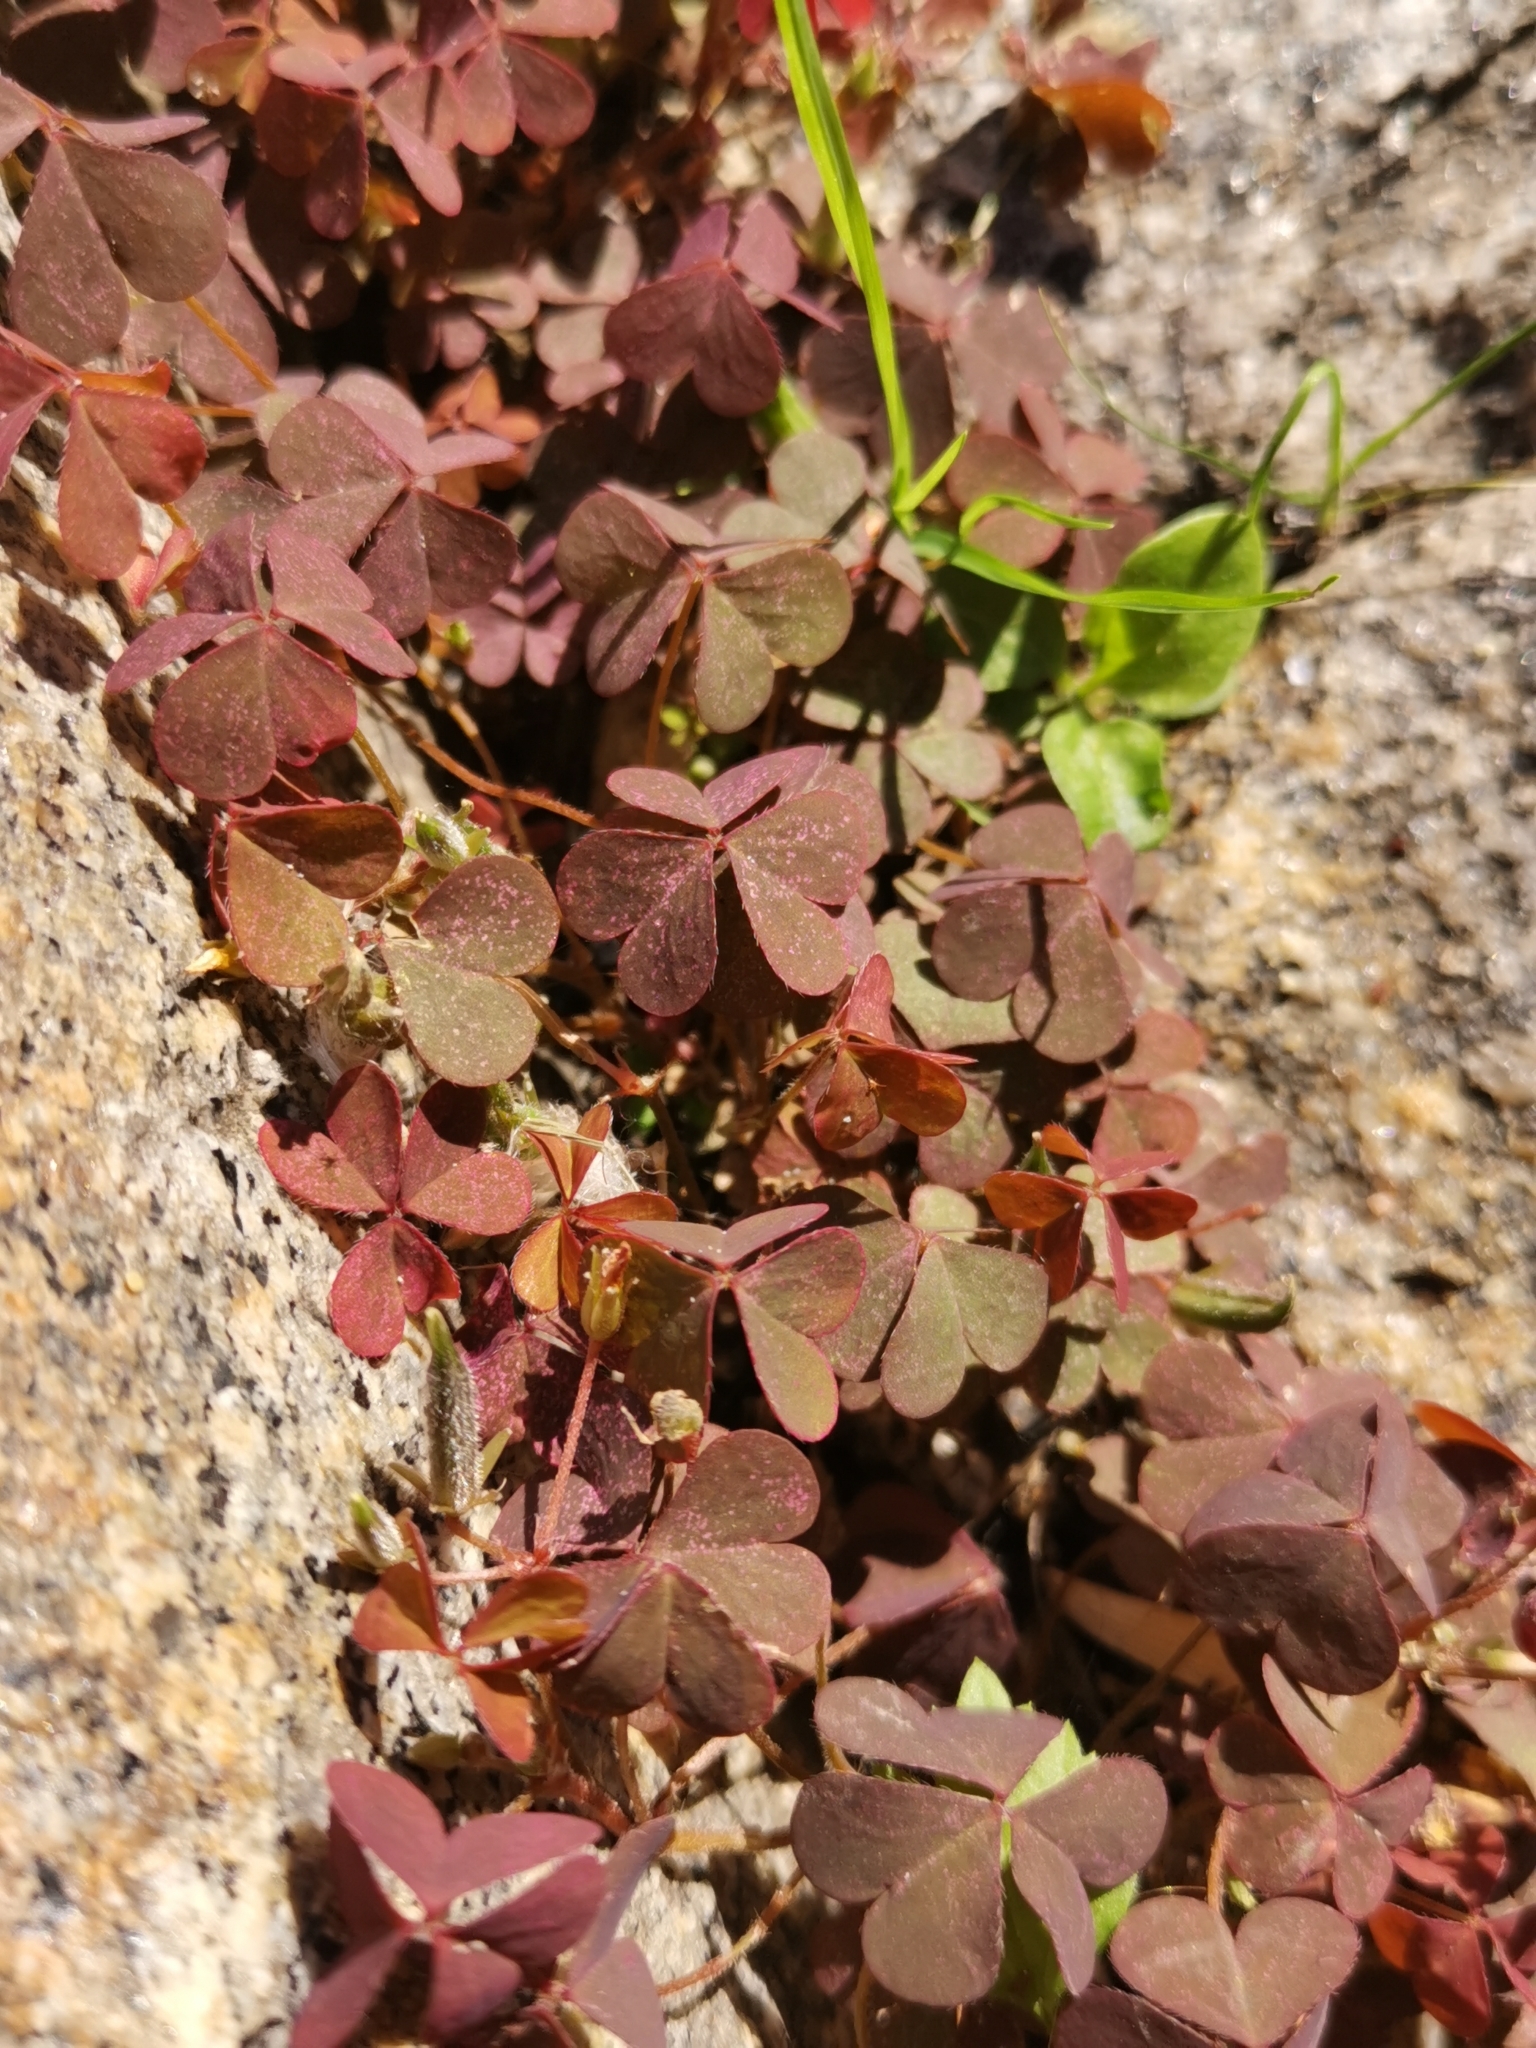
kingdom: Plantae
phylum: Tracheophyta
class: Magnoliopsida
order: Oxalidales
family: Oxalidaceae
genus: Oxalis
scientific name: Oxalis corniculata
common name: Procumbent yellow-sorrel
